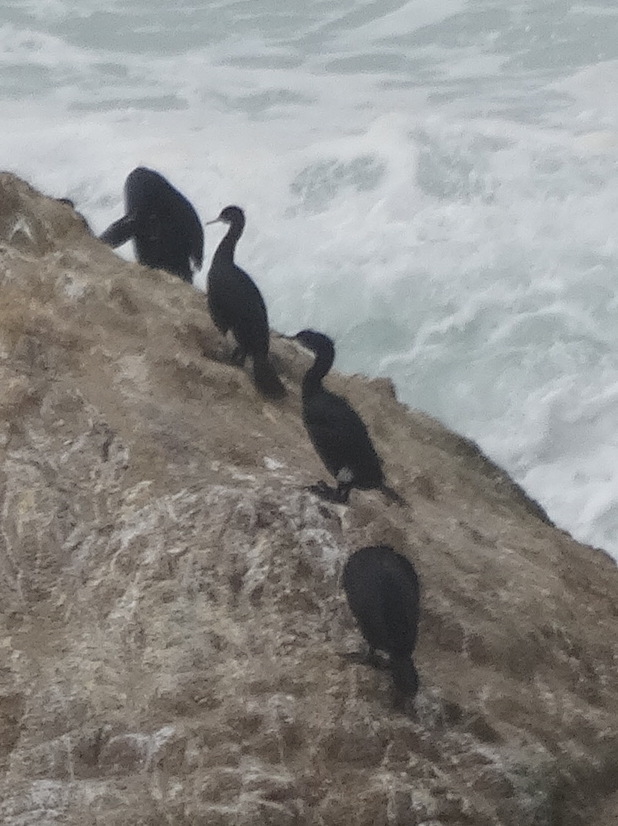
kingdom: Animalia
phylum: Chordata
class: Aves
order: Suliformes
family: Phalacrocoracidae
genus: Phalacrocorax
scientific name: Phalacrocorax pelagicus
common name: Pelagic cormorant
